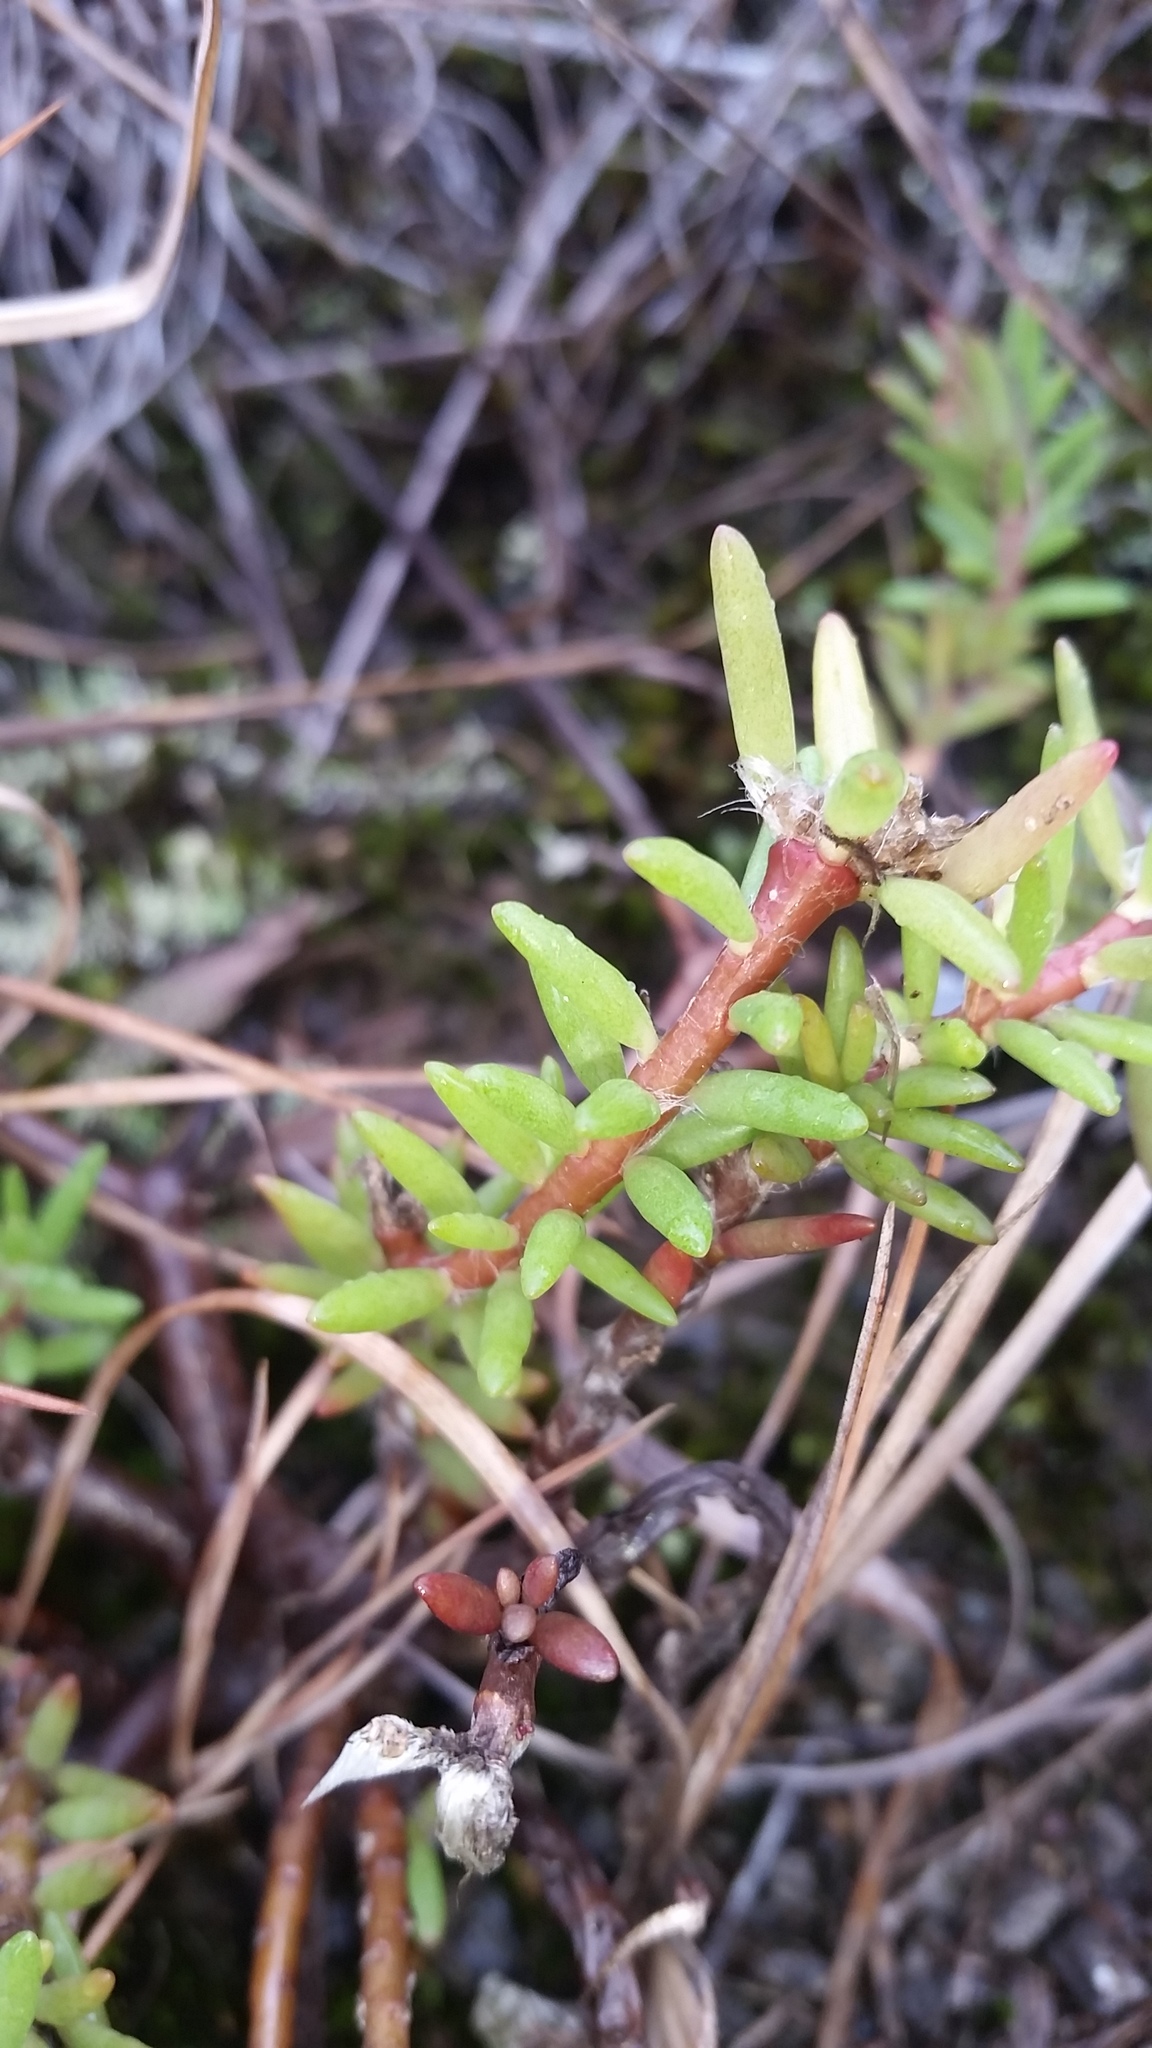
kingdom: Plantae
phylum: Tracheophyta
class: Magnoliopsida
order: Caryophyllales
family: Portulacaceae
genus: Portulaca
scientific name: Portulaca sclerocarpa
